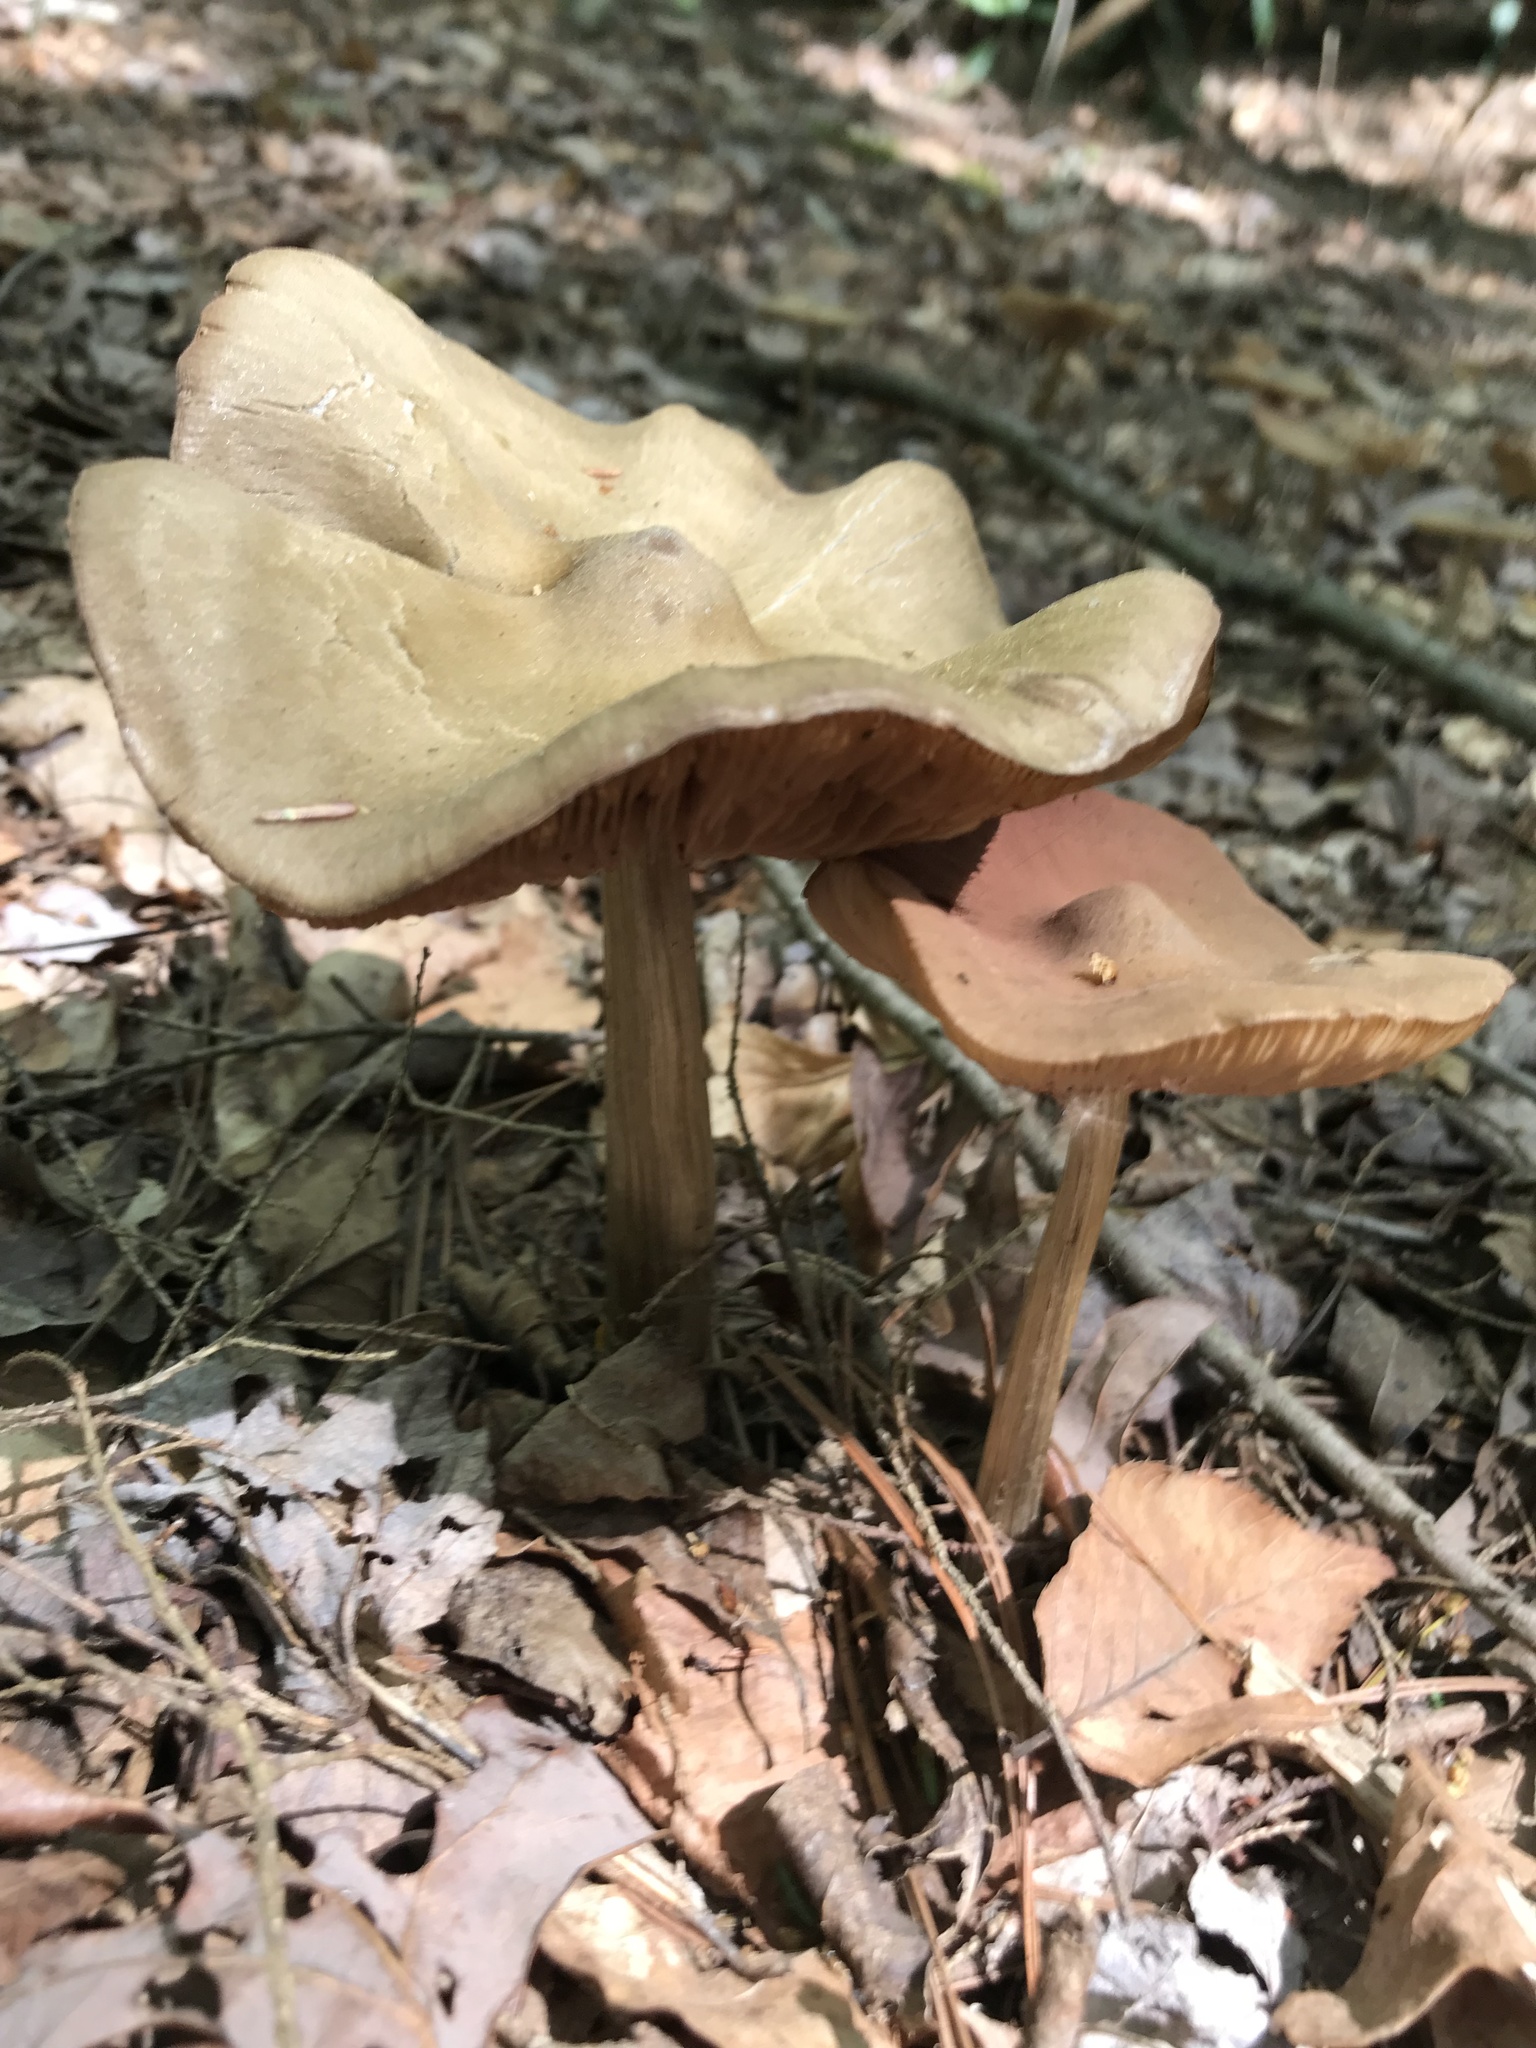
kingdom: Fungi
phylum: Basidiomycota
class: Agaricomycetes
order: Agaricales
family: Entolomataceae
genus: Entoloma
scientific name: Entoloma strictius
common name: Straight-stalked entoloma
